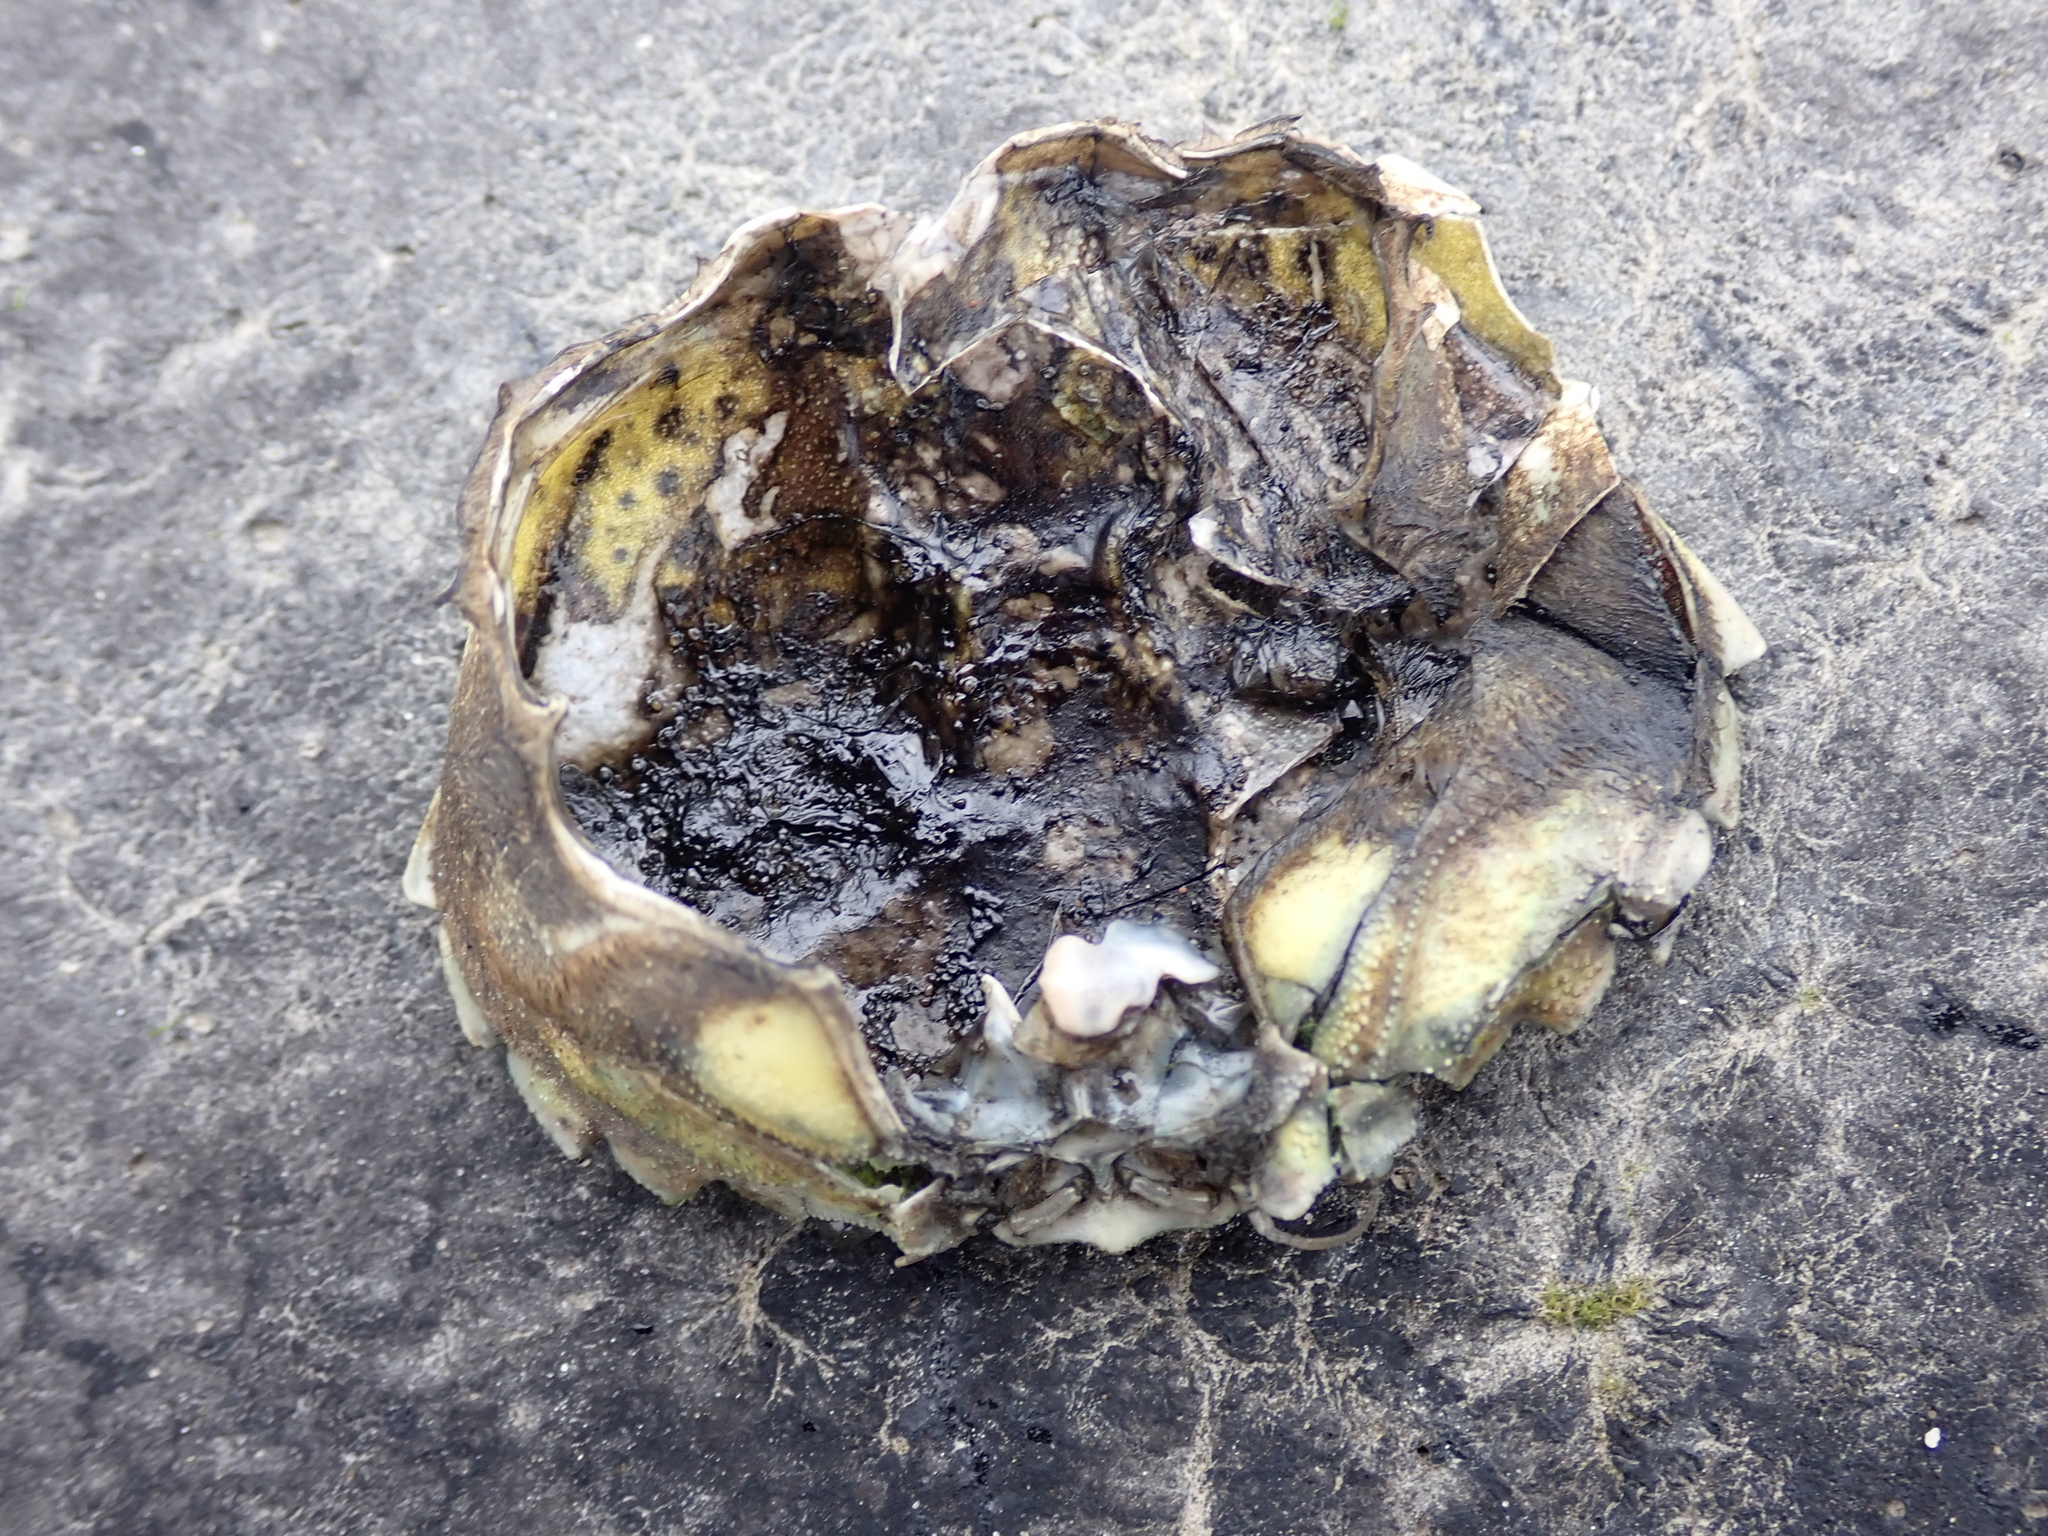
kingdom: Animalia
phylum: Arthropoda
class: Malacostraca
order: Decapoda
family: Carcinidae
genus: Carcinus
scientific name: Carcinus maenas
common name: European green crab
